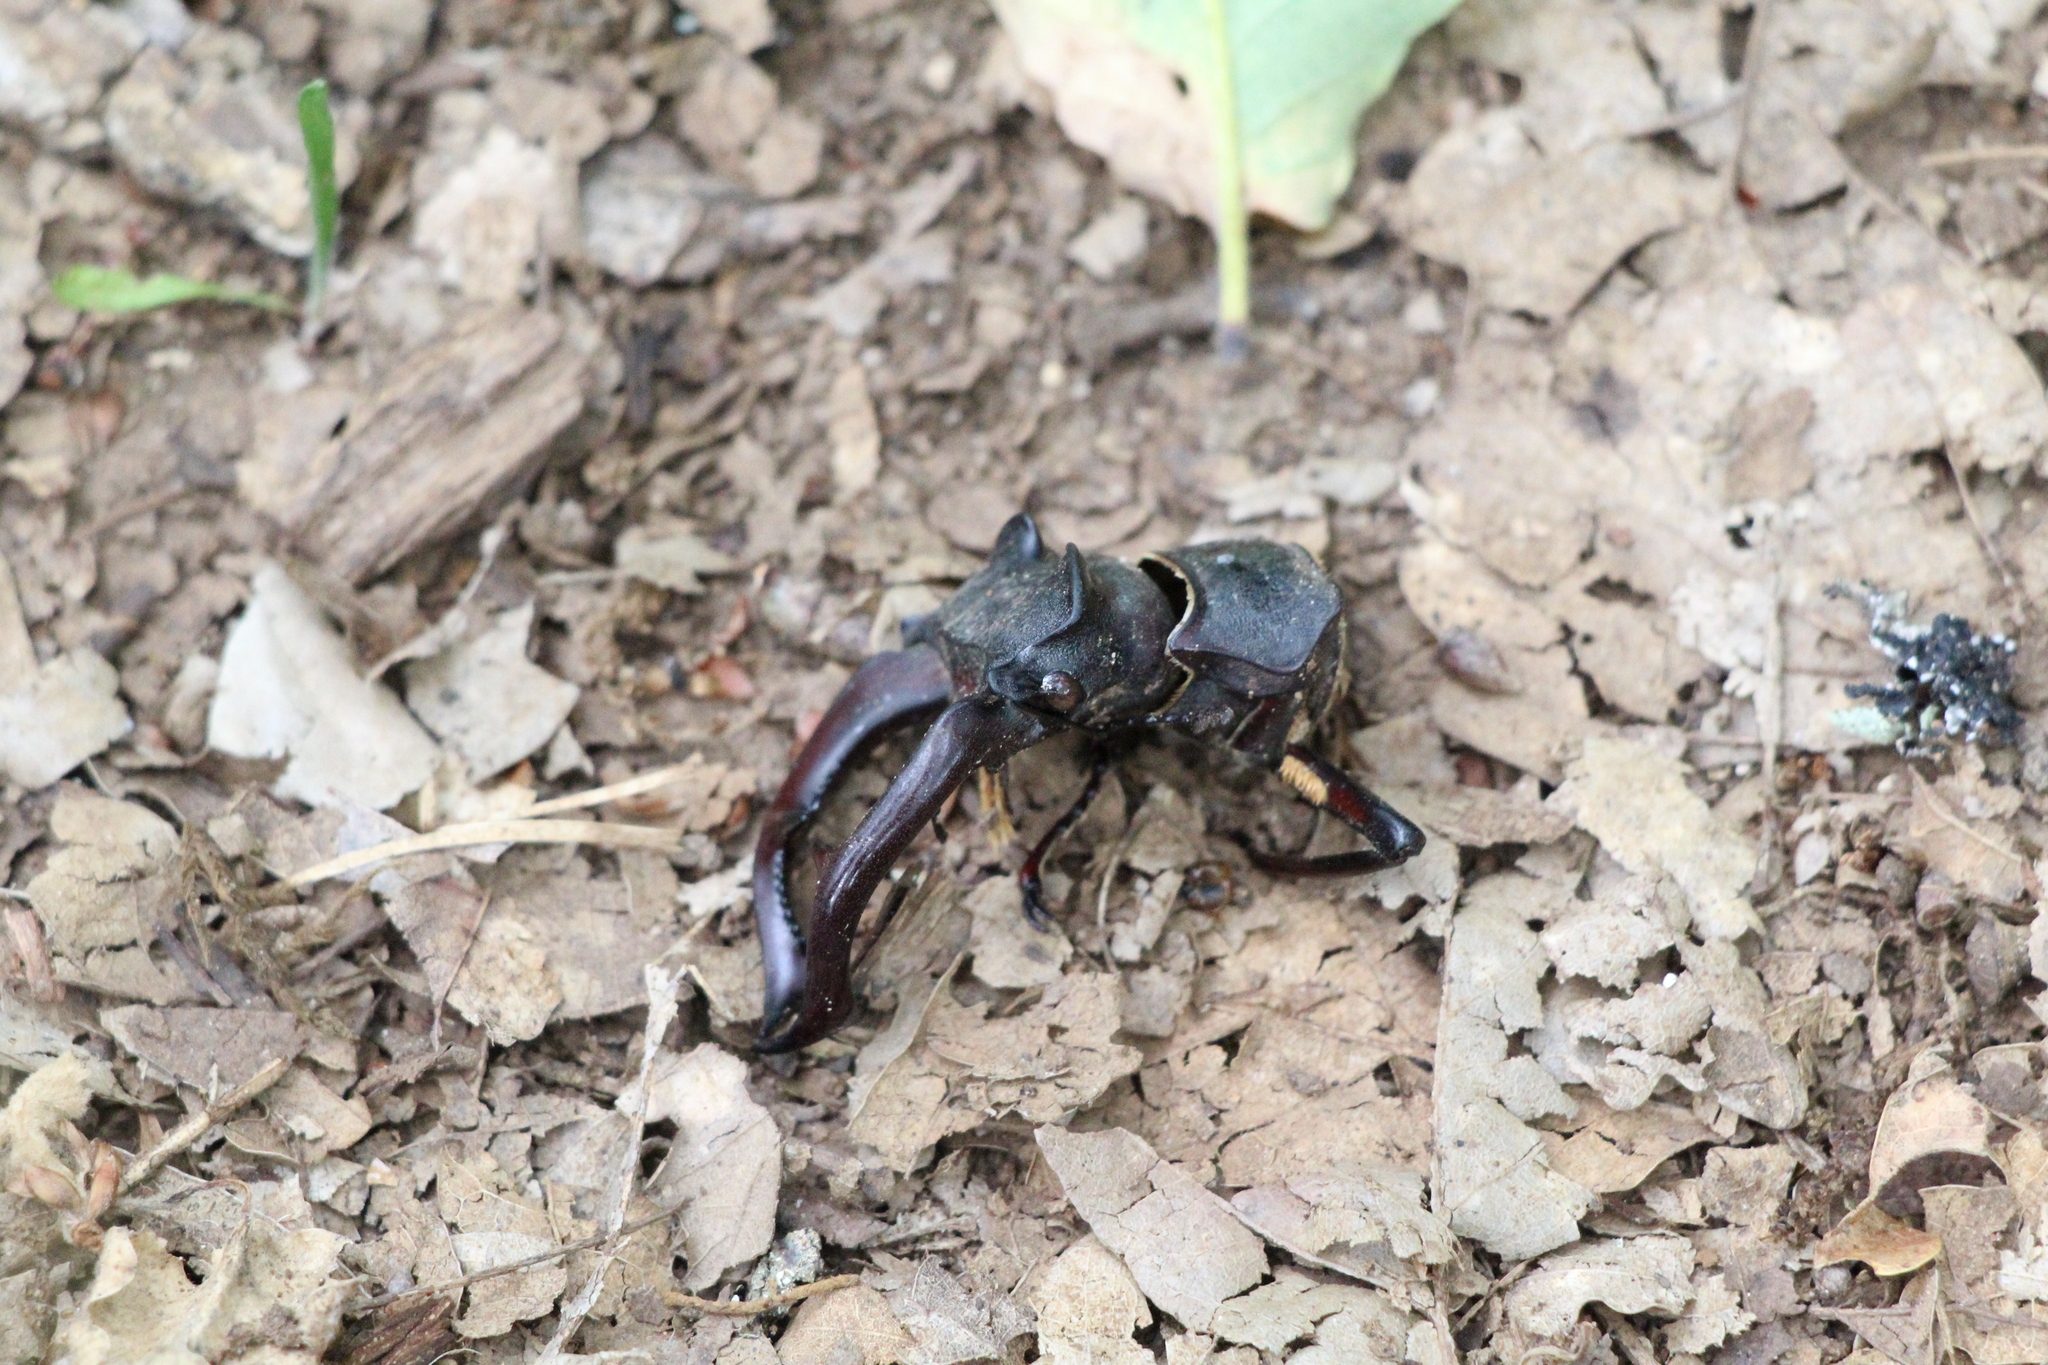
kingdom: Animalia
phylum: Arthropoda
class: Insecta
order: Coleoptera
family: Lucanidae
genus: Lucanus
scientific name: Lucanus cervus
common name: Stag beetle
